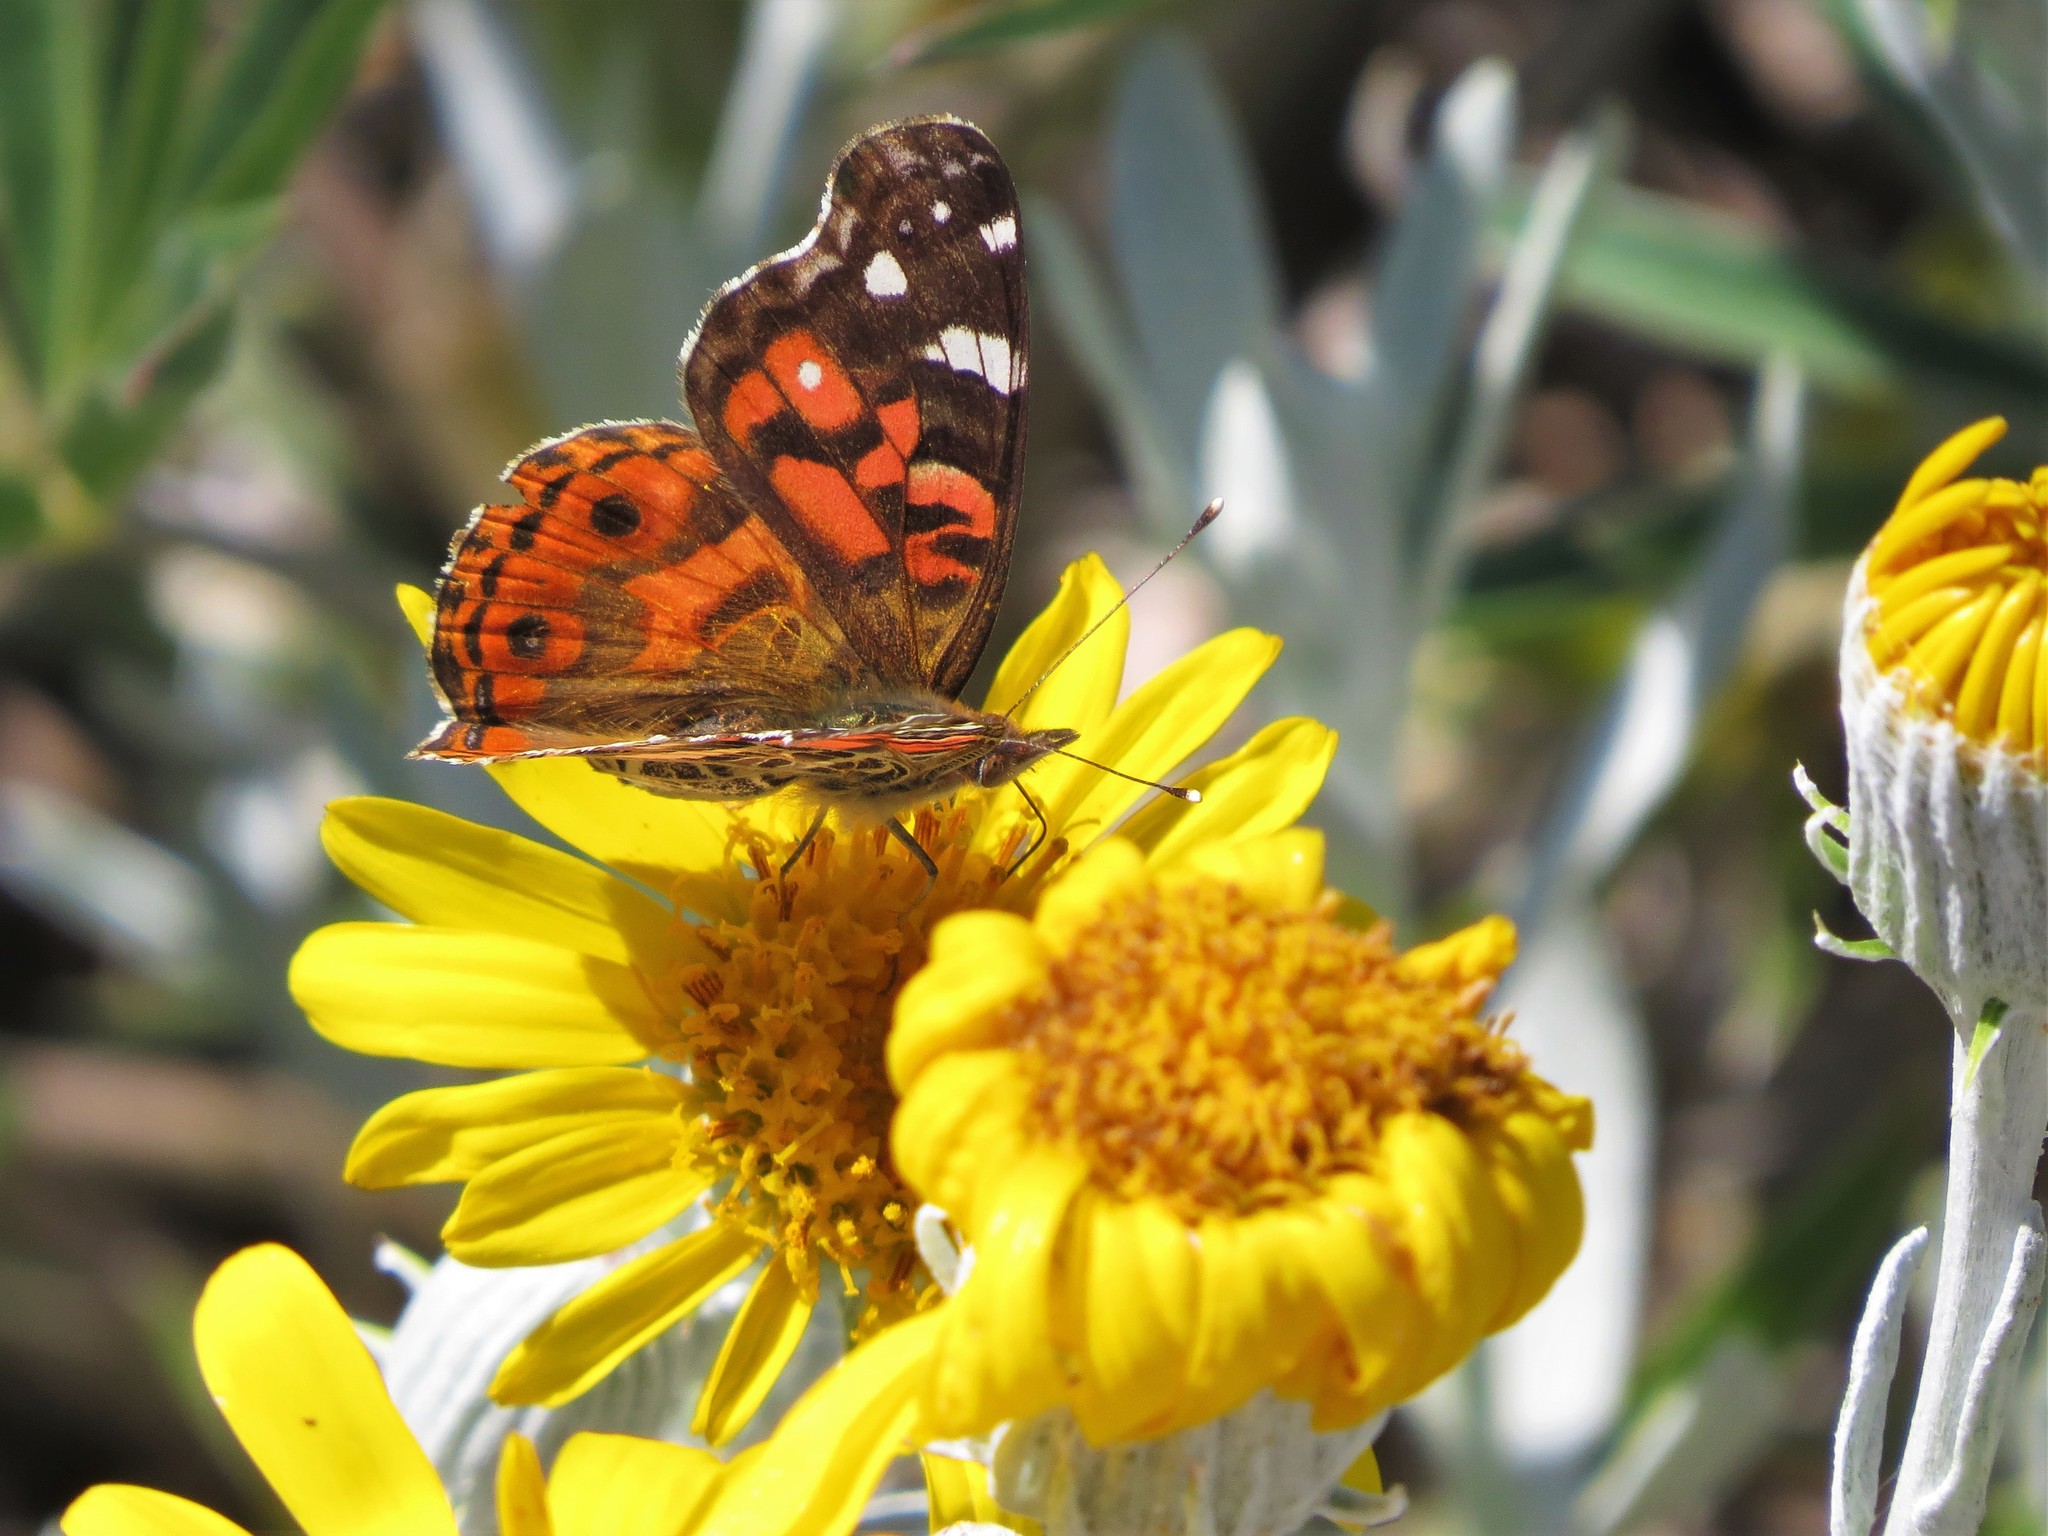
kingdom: Animalia
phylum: Arthropoda
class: Insecta
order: Lepidoptera
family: Nymphalidae
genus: Vanessa
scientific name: Vanessa braziliensis
